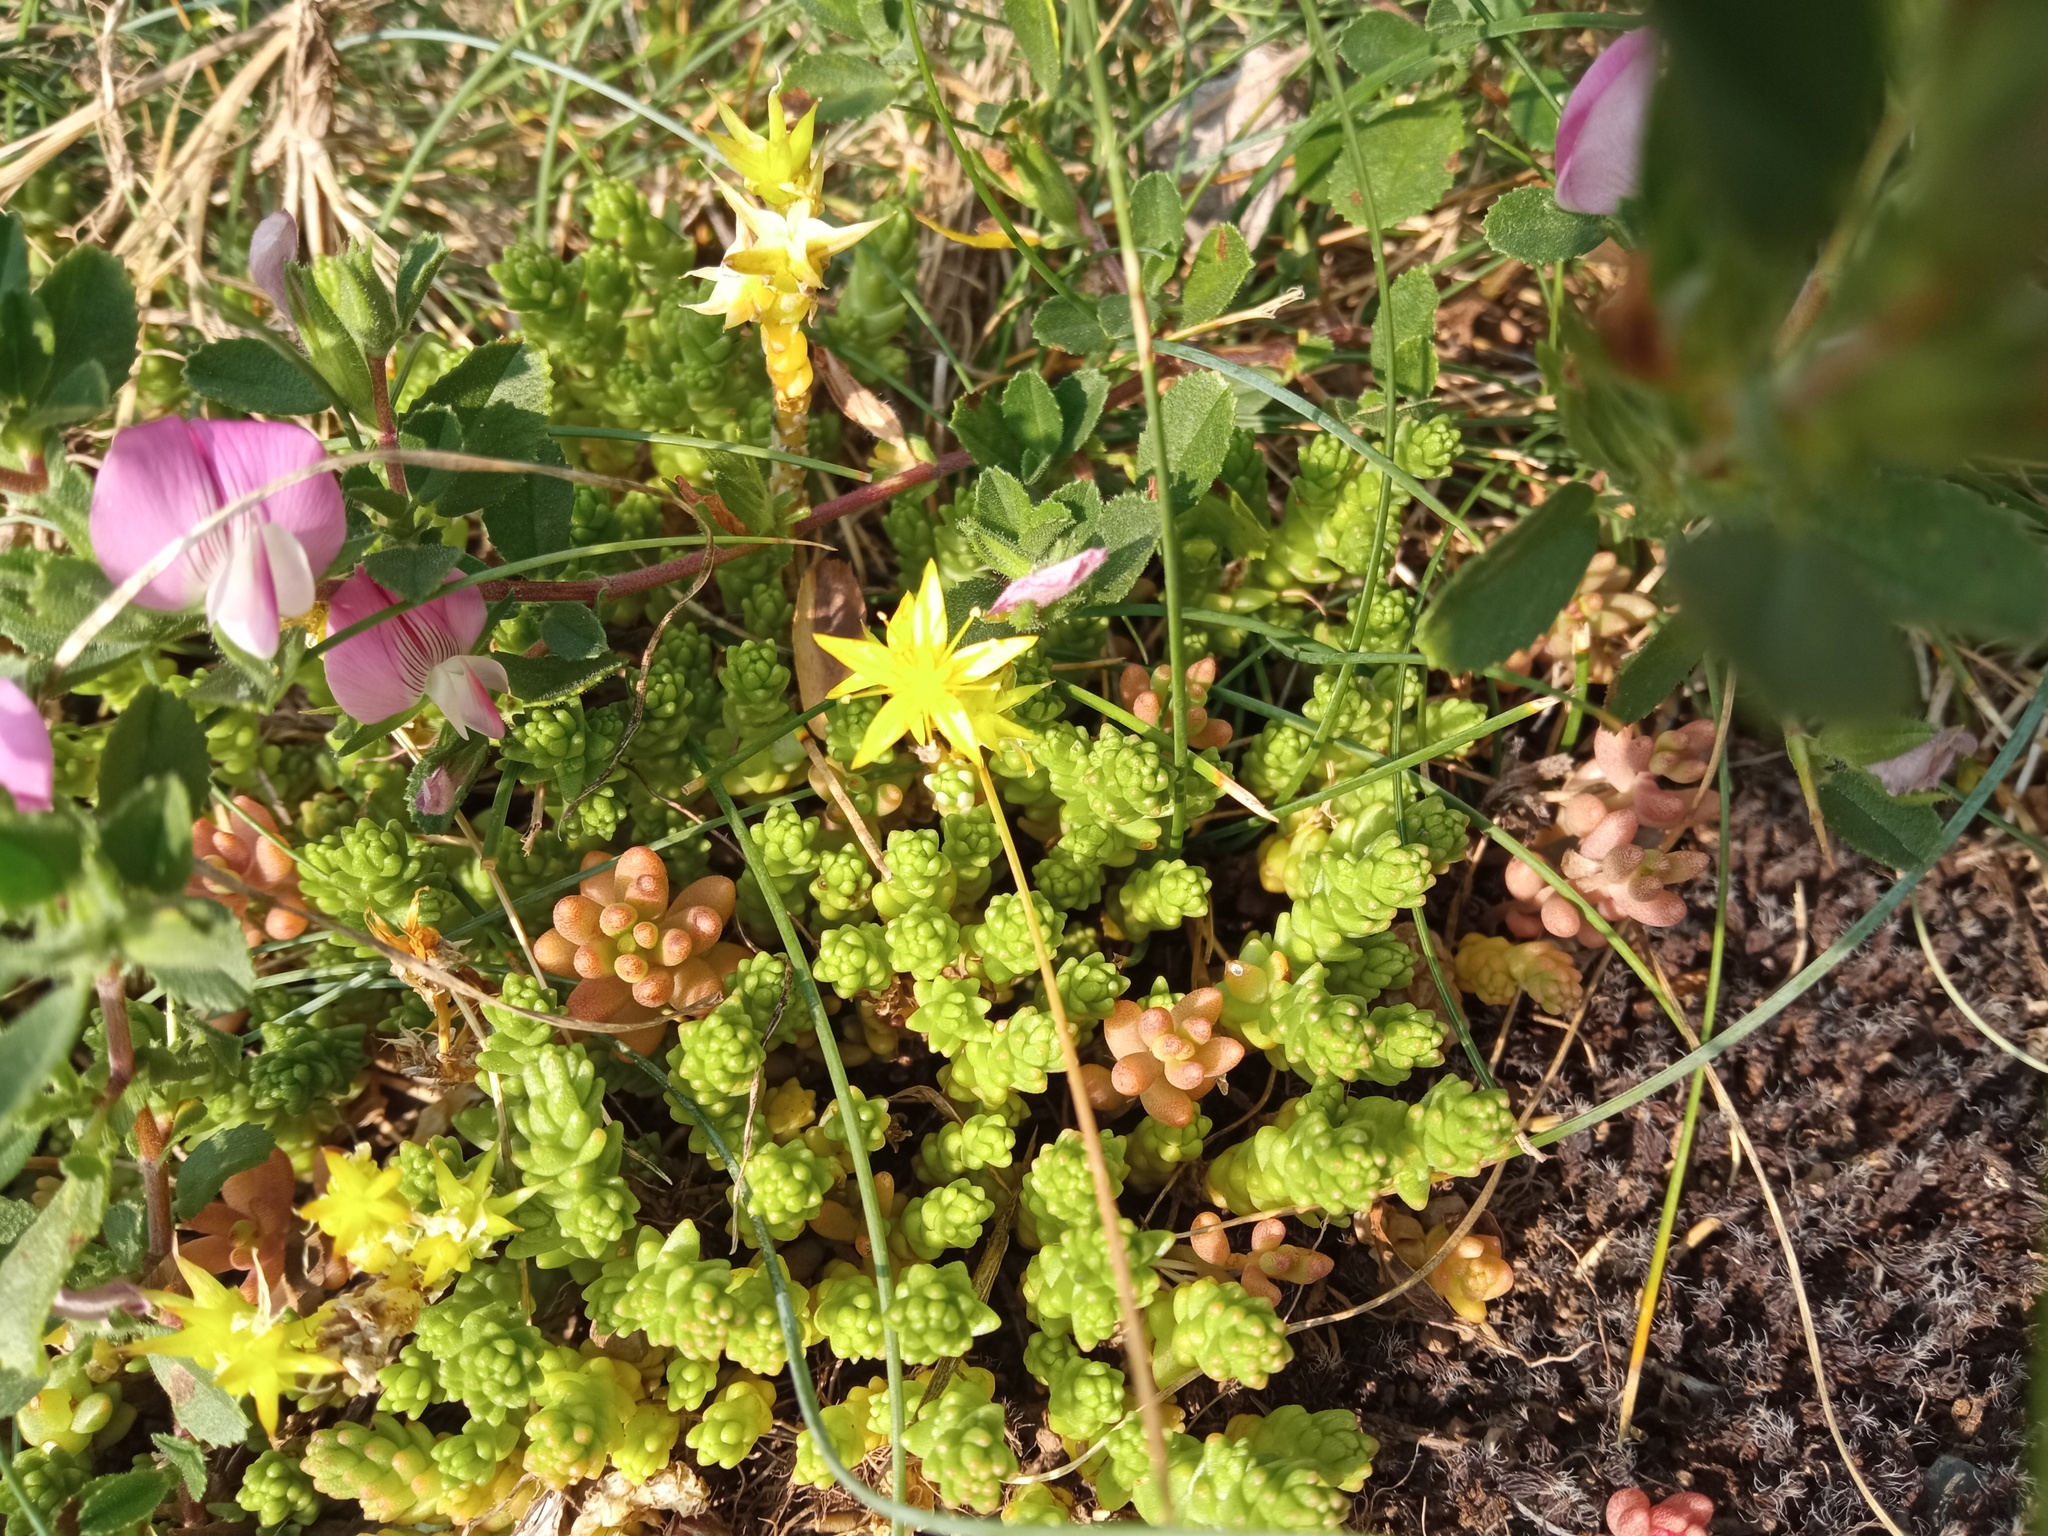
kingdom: Plantae
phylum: Tracheophyta
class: Magnoliopsida
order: Saxifragales
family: Crassulaceae
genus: Sedum
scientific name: Sedum acre
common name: Biting stonecrop
